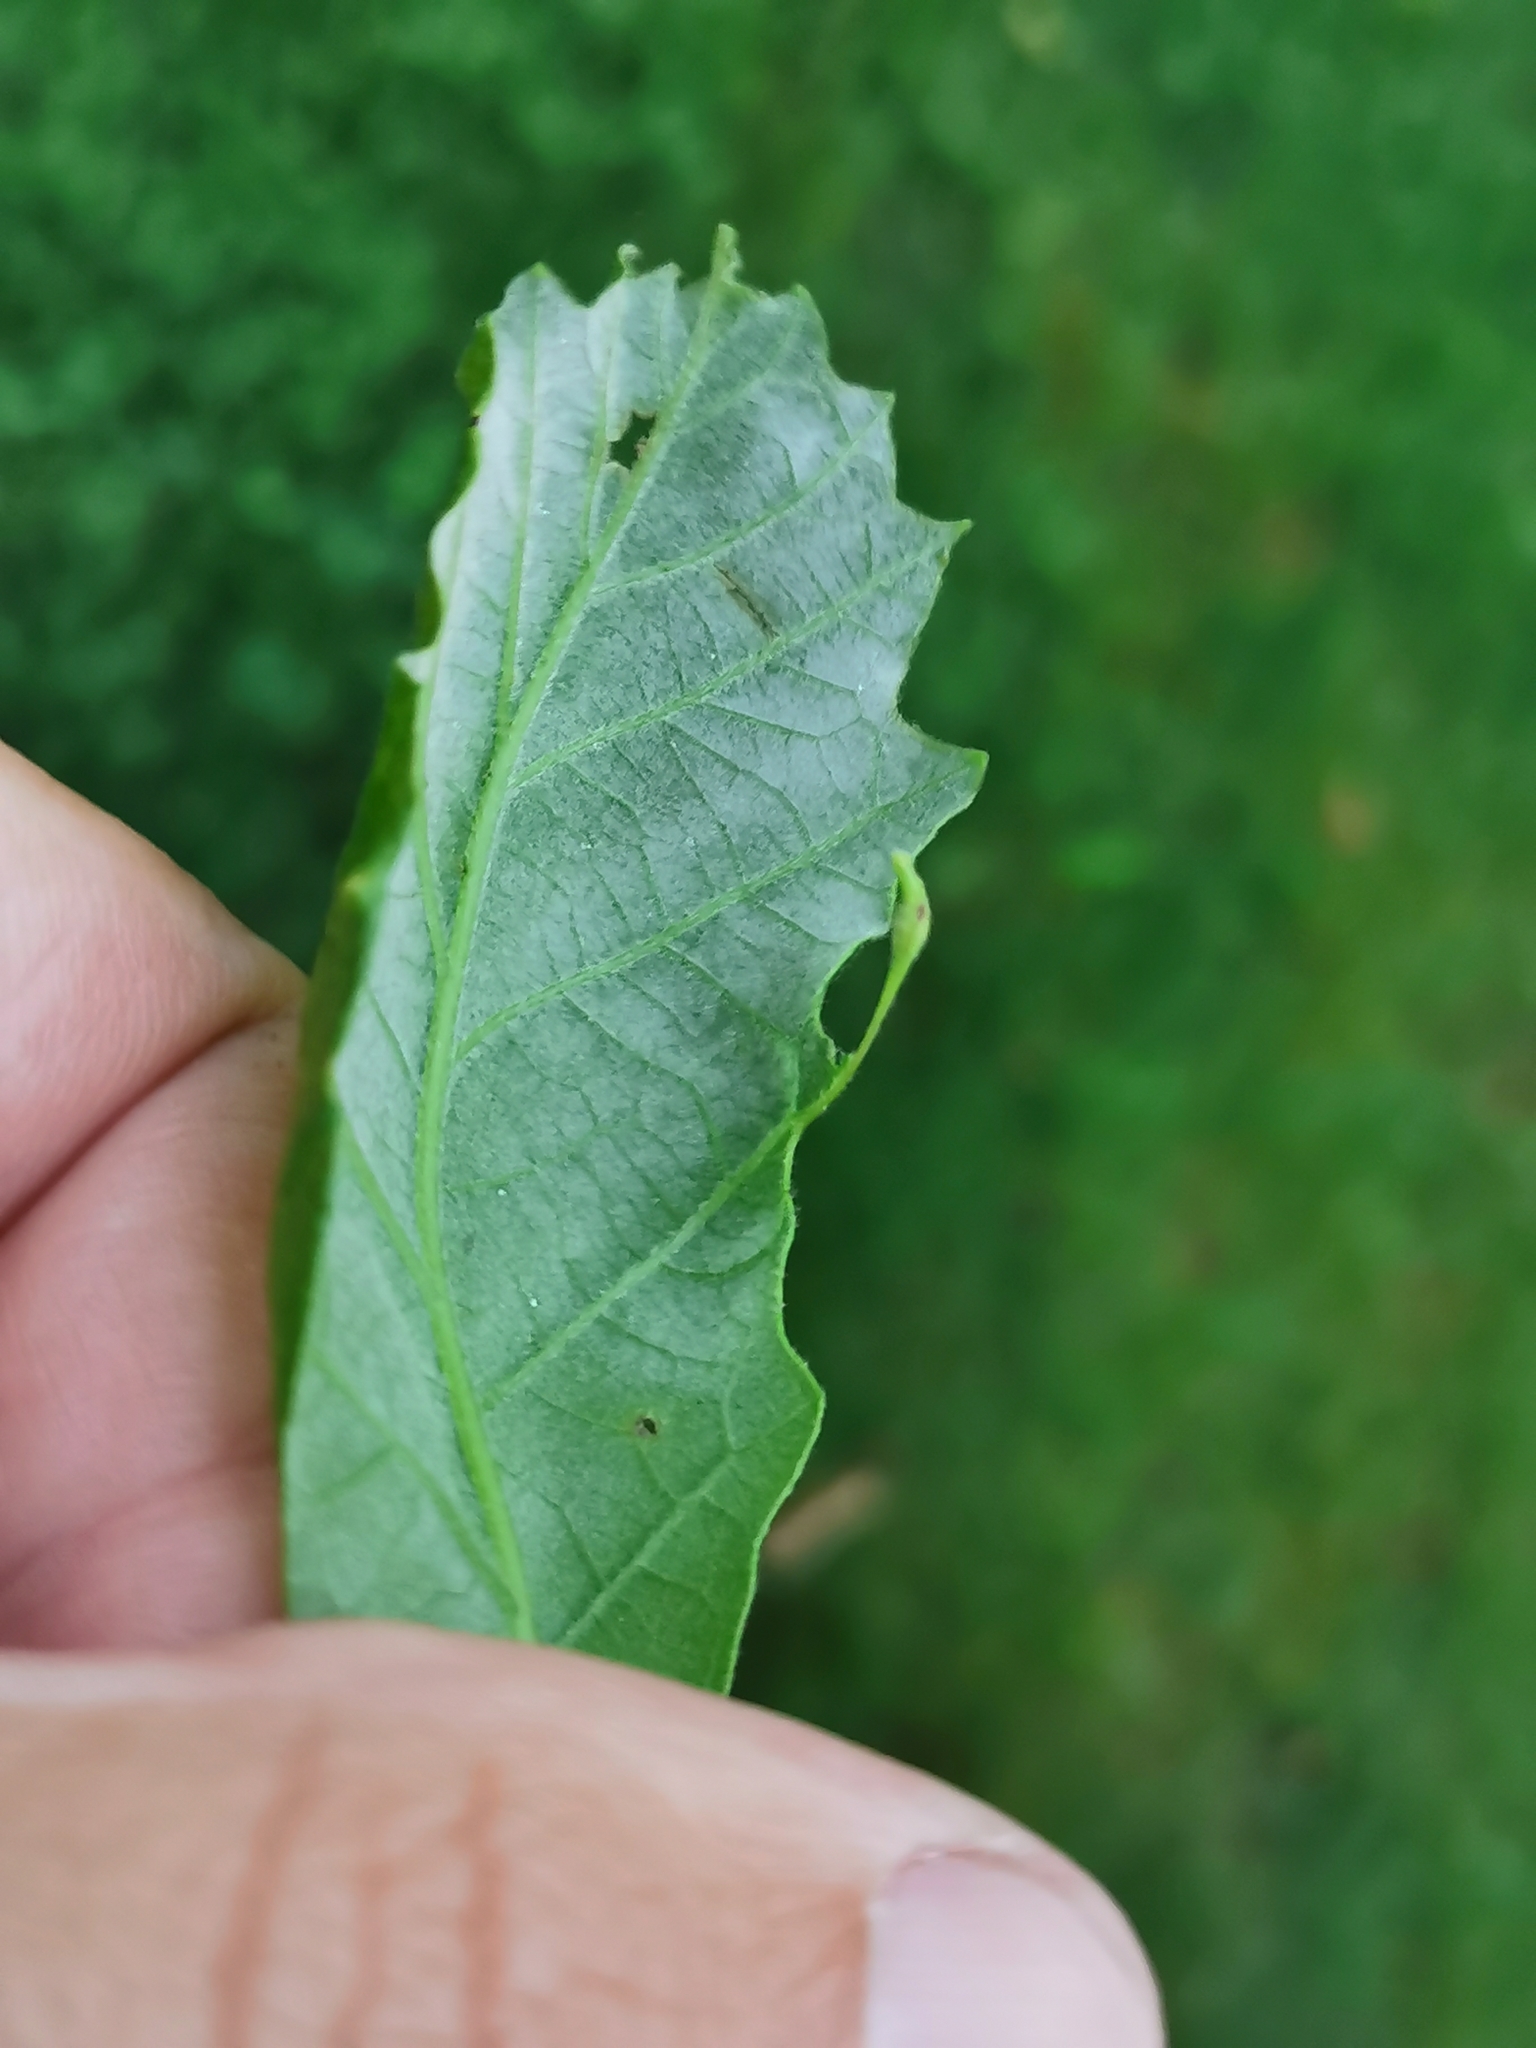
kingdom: Animalia
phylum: Arthropoda
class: Insecta
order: Hymenoptera
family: Cynipidae
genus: Andricus
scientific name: Andricus
